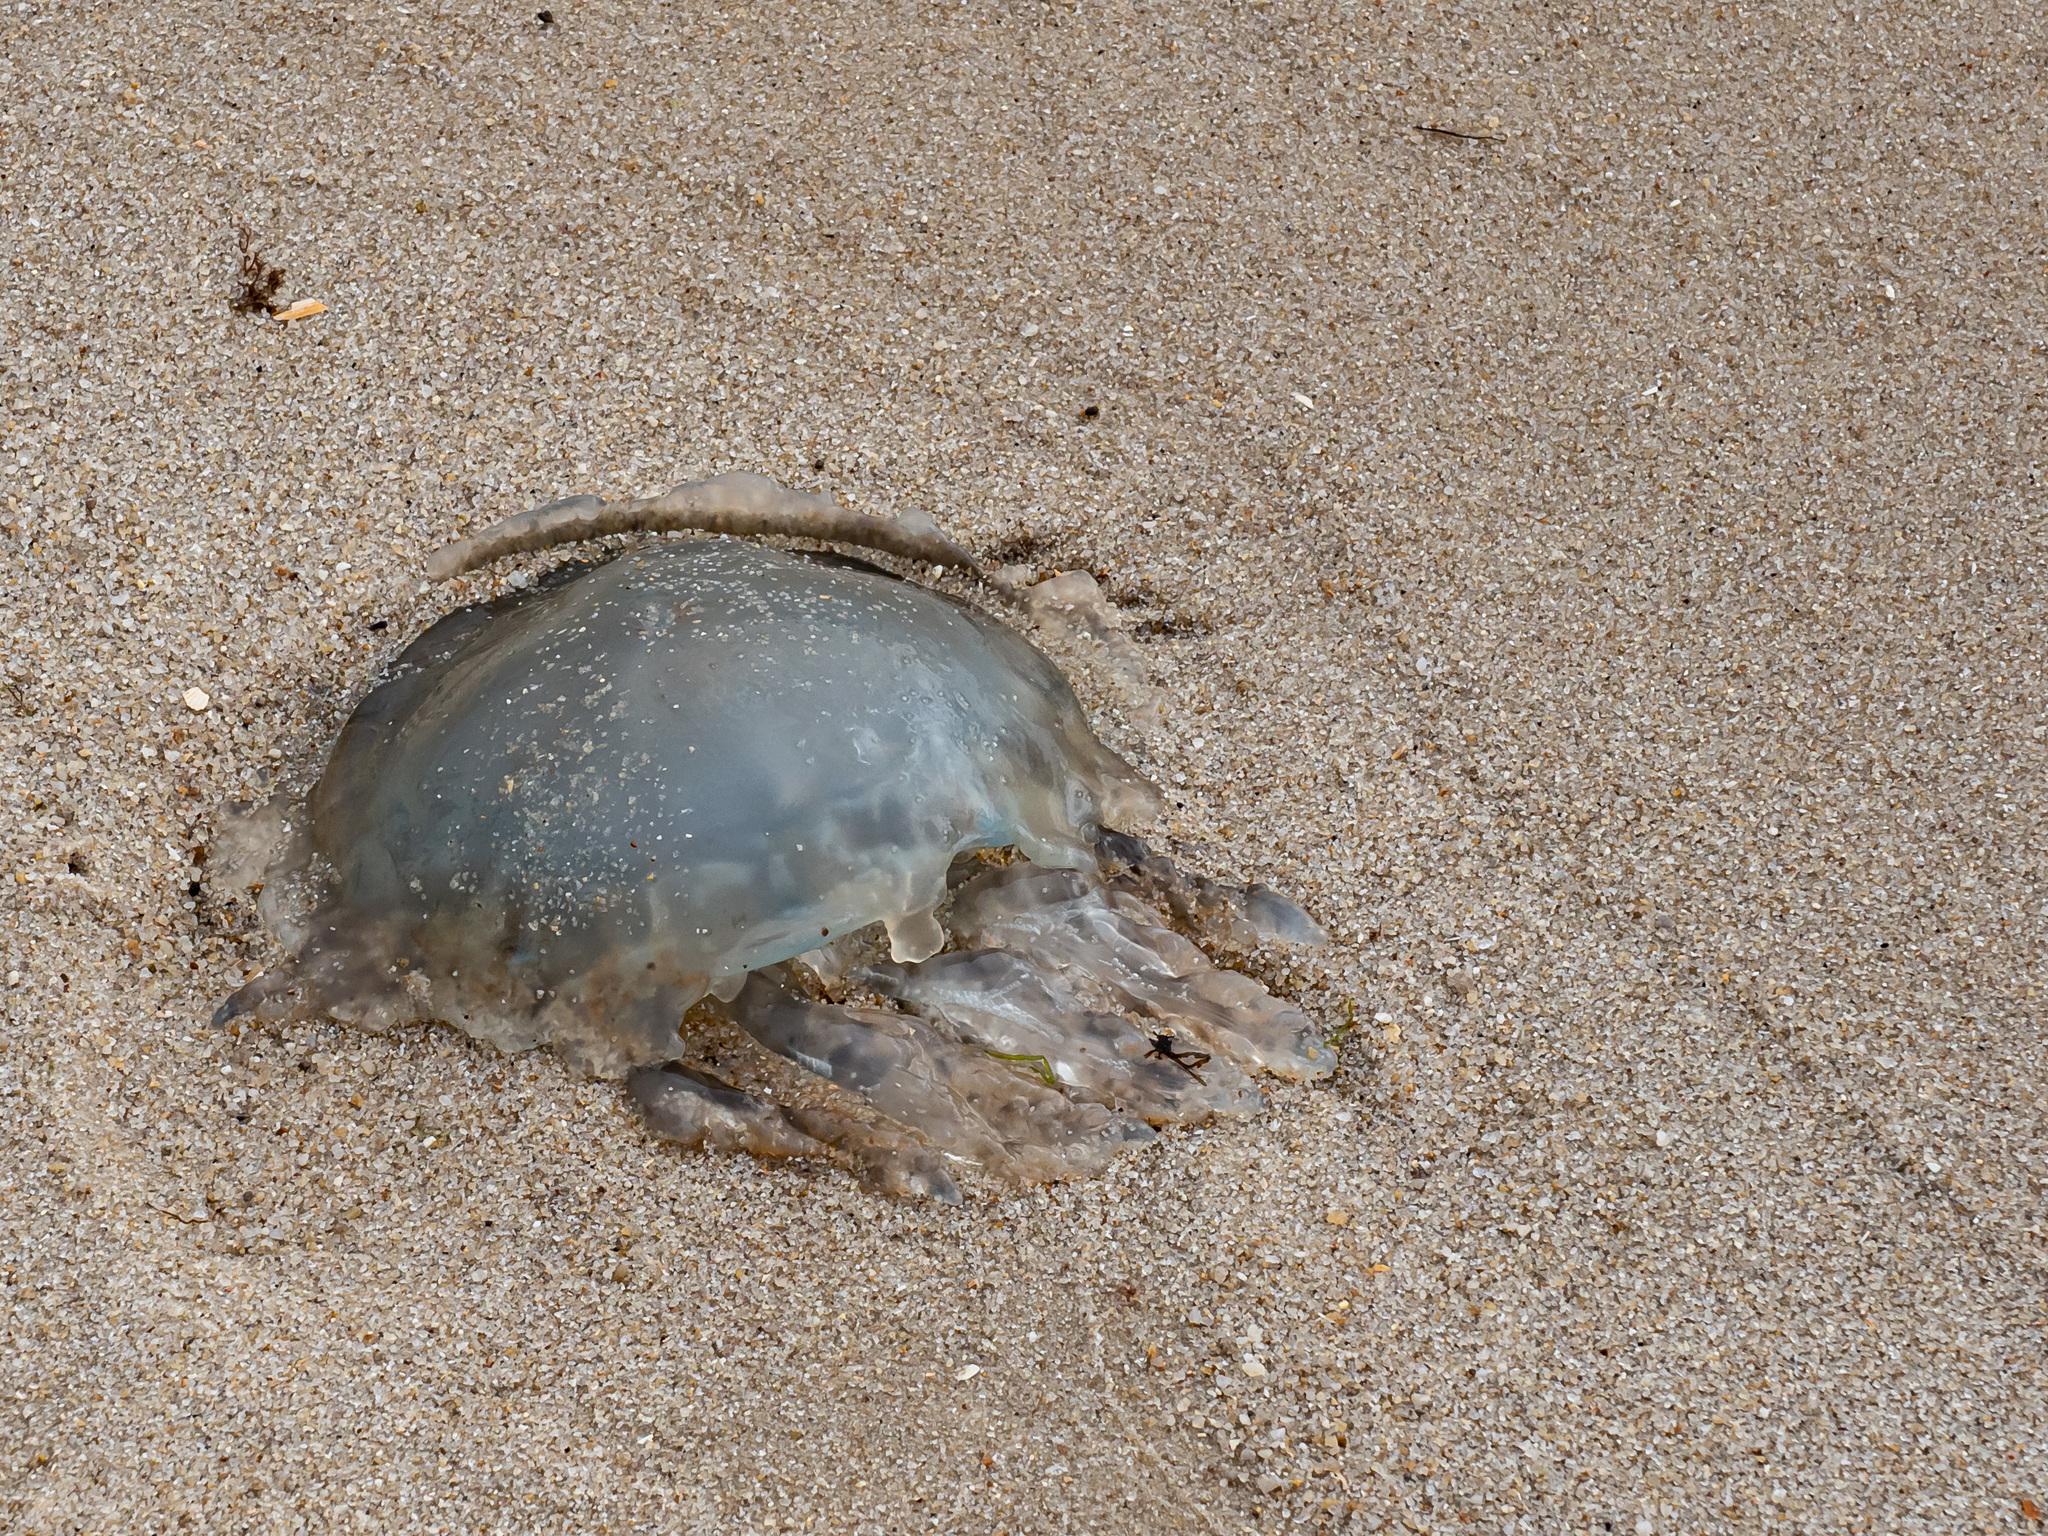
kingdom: Animalia
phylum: Cnidaria
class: Scyphozoa
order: Rhizostomeae
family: Rhizostomatidae
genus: Rhizostoma
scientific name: Rhizostoma octopus
